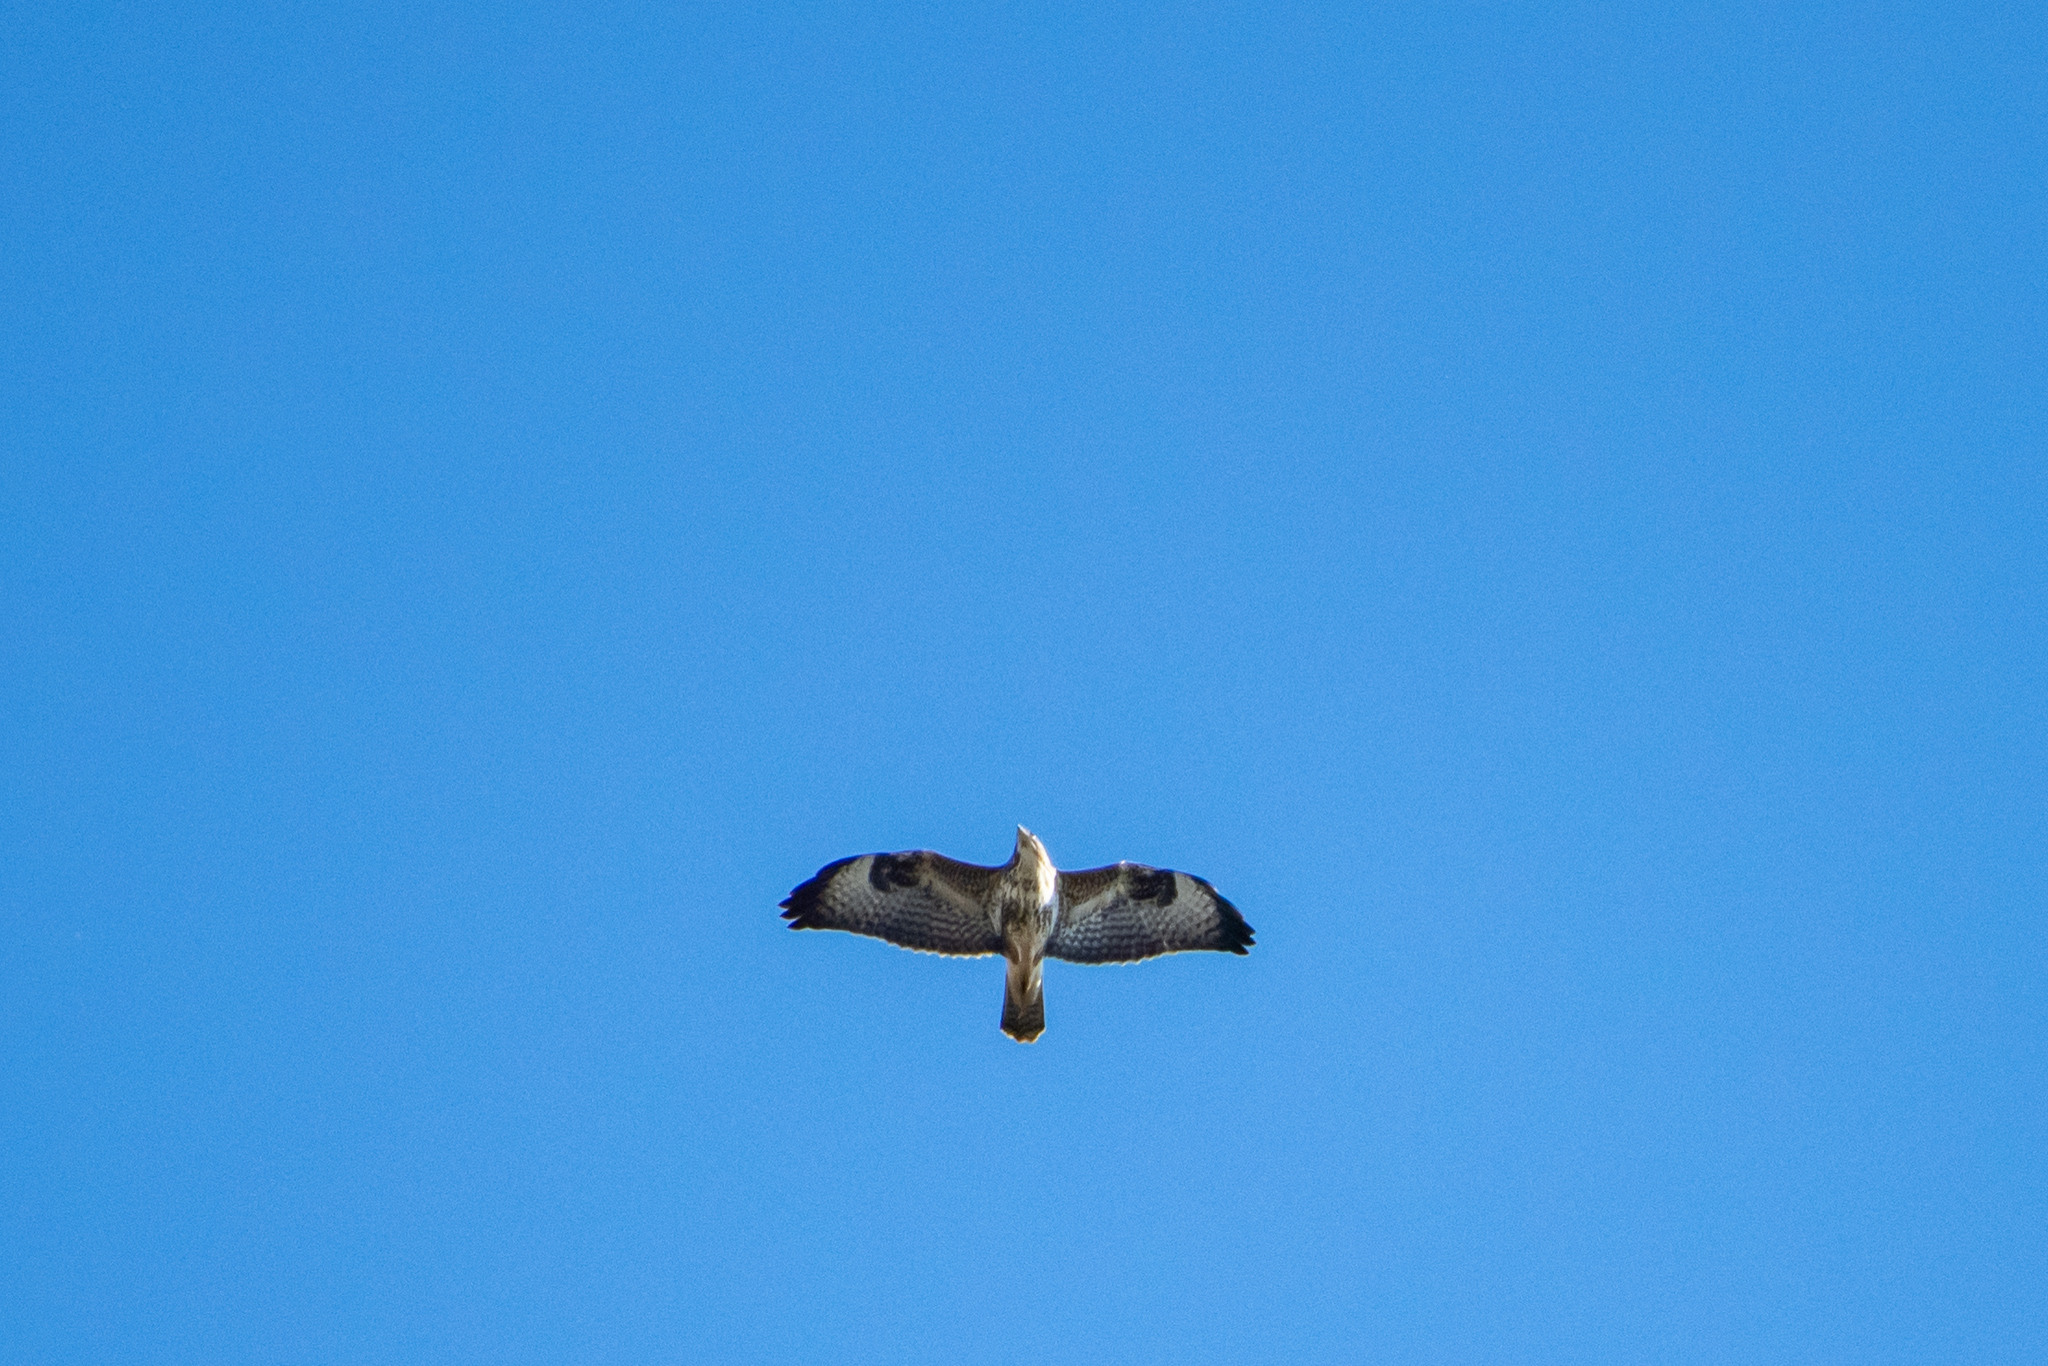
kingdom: Animalia
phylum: Chordata
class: Aves
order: Accipitriformes
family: Accipitridae
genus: Buteo
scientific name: Buteo buteo
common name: Common buzzard
